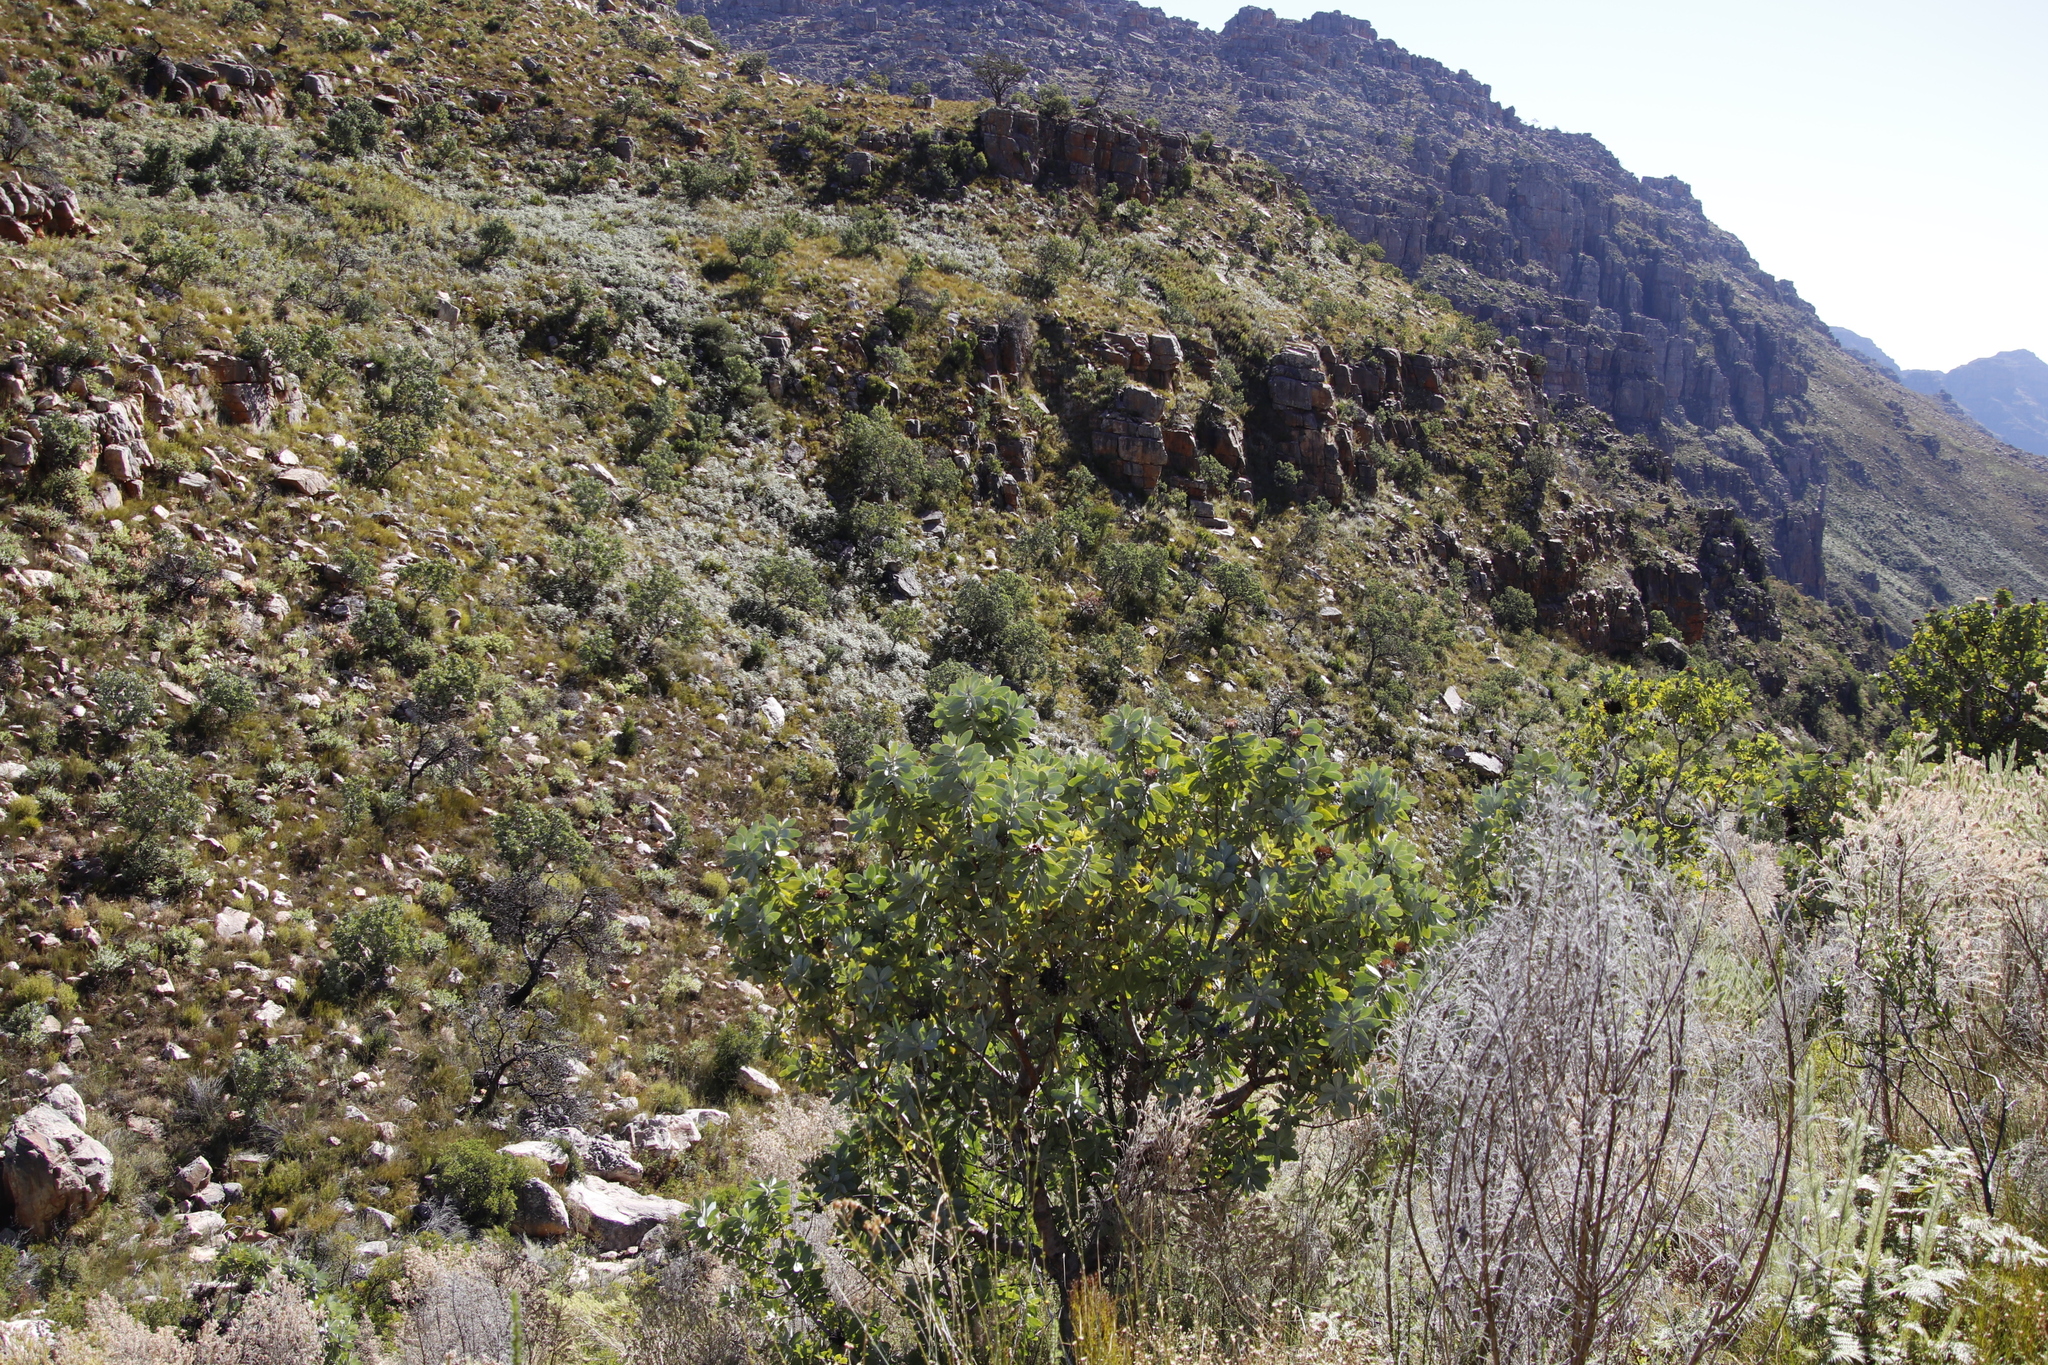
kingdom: Plantae
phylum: Tracheophyta
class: Magnoliopsida
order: Proteales
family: Proteaceae
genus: Protea
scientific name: Protea nitida
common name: Tree protea
